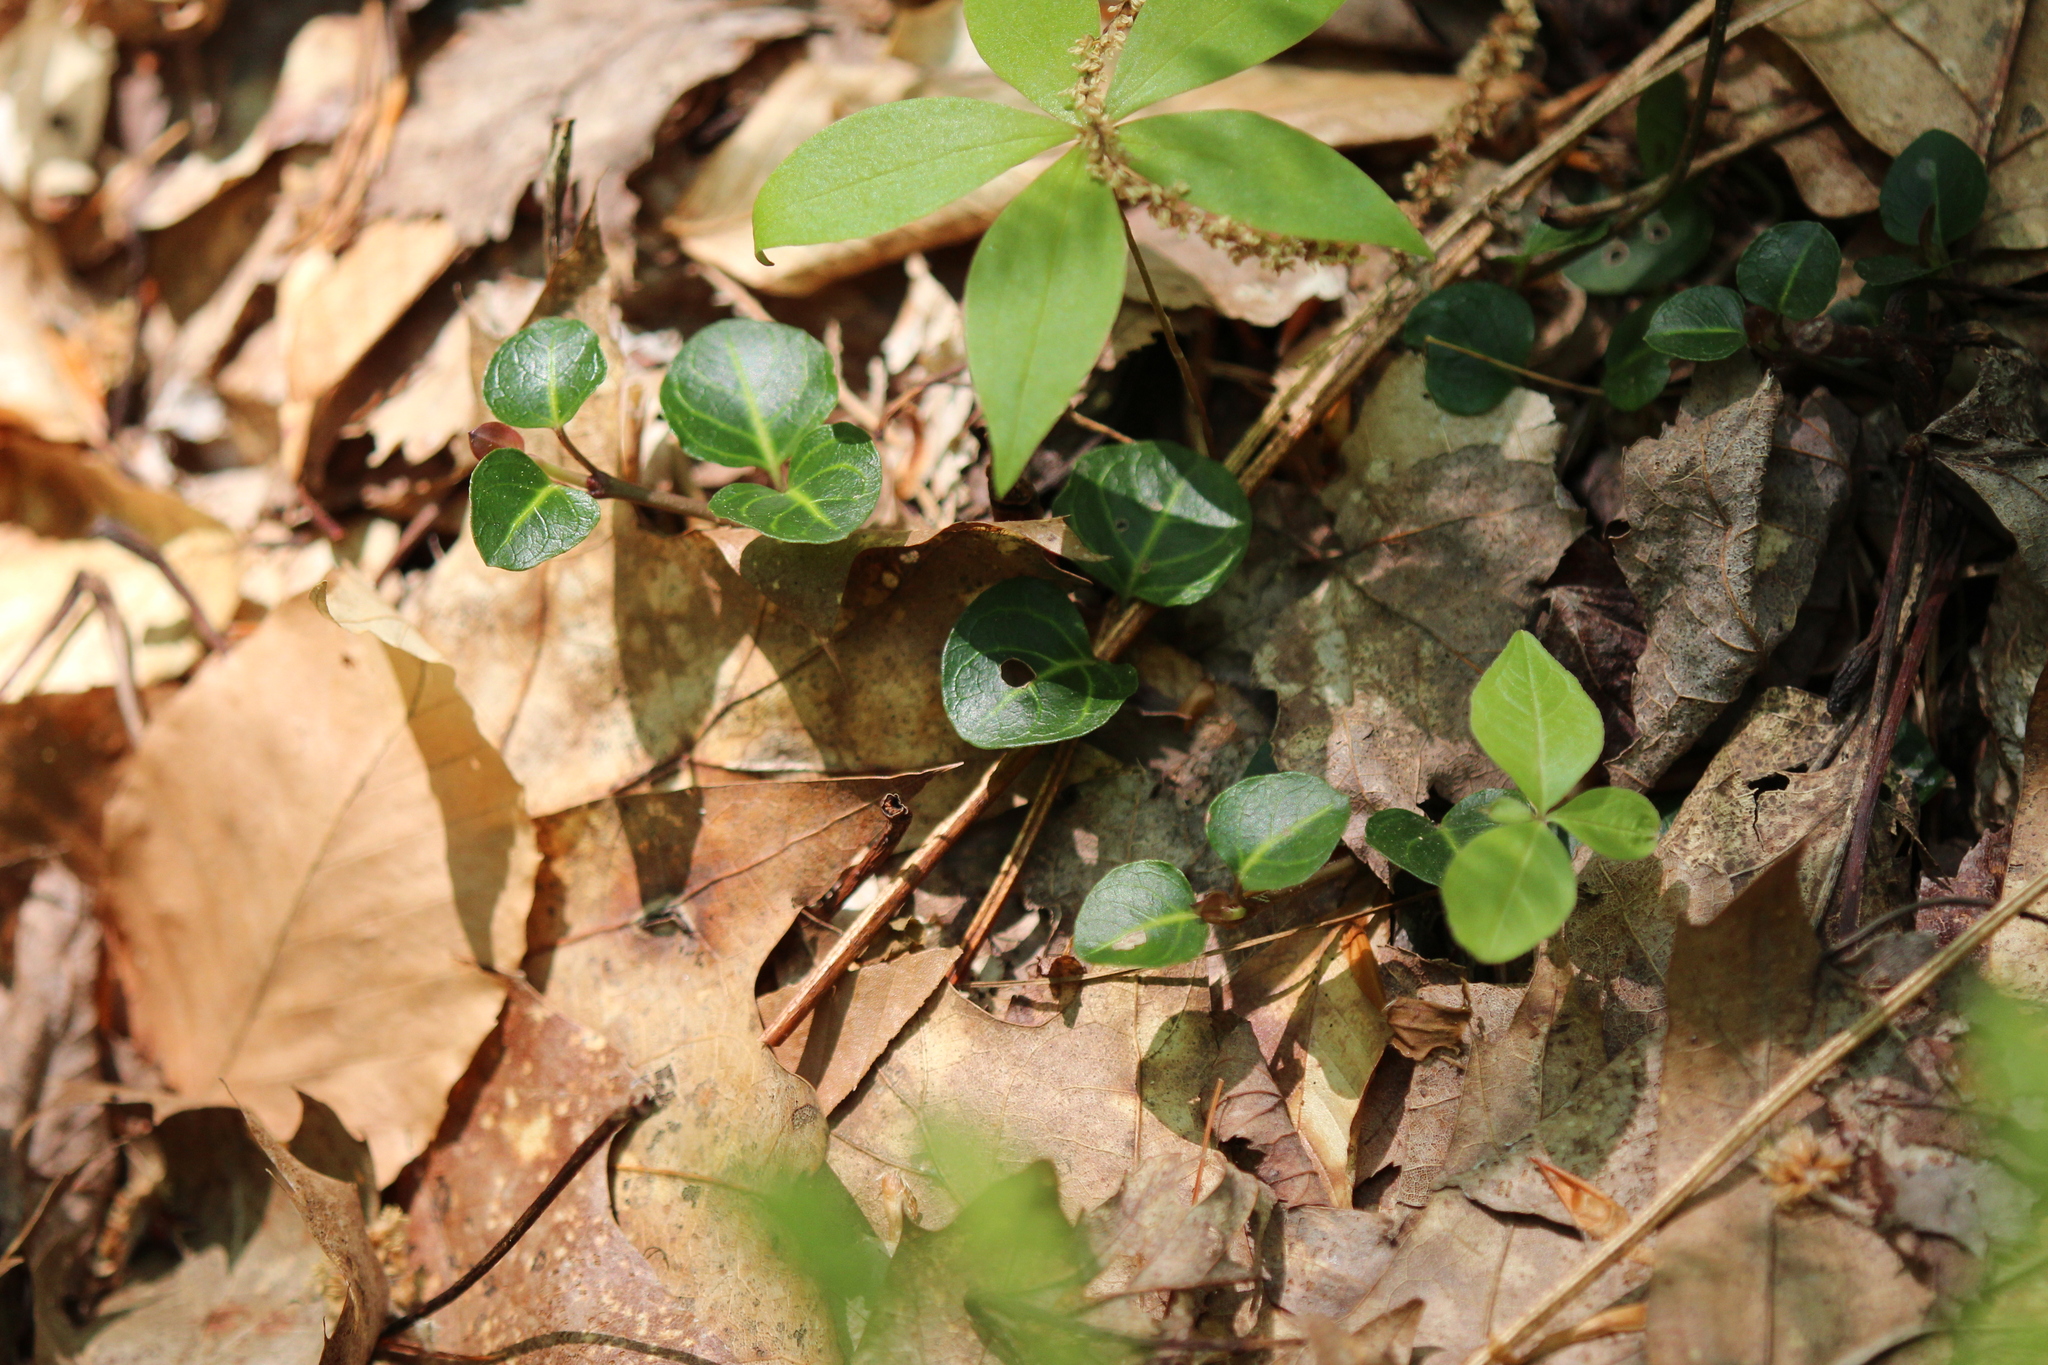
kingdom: Plantae
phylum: Tracheophyta
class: Magnoliopsida
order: Gentianales
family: Rubiaceae
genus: Mitchella
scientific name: Mitchella repens
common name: Partridge-berry
